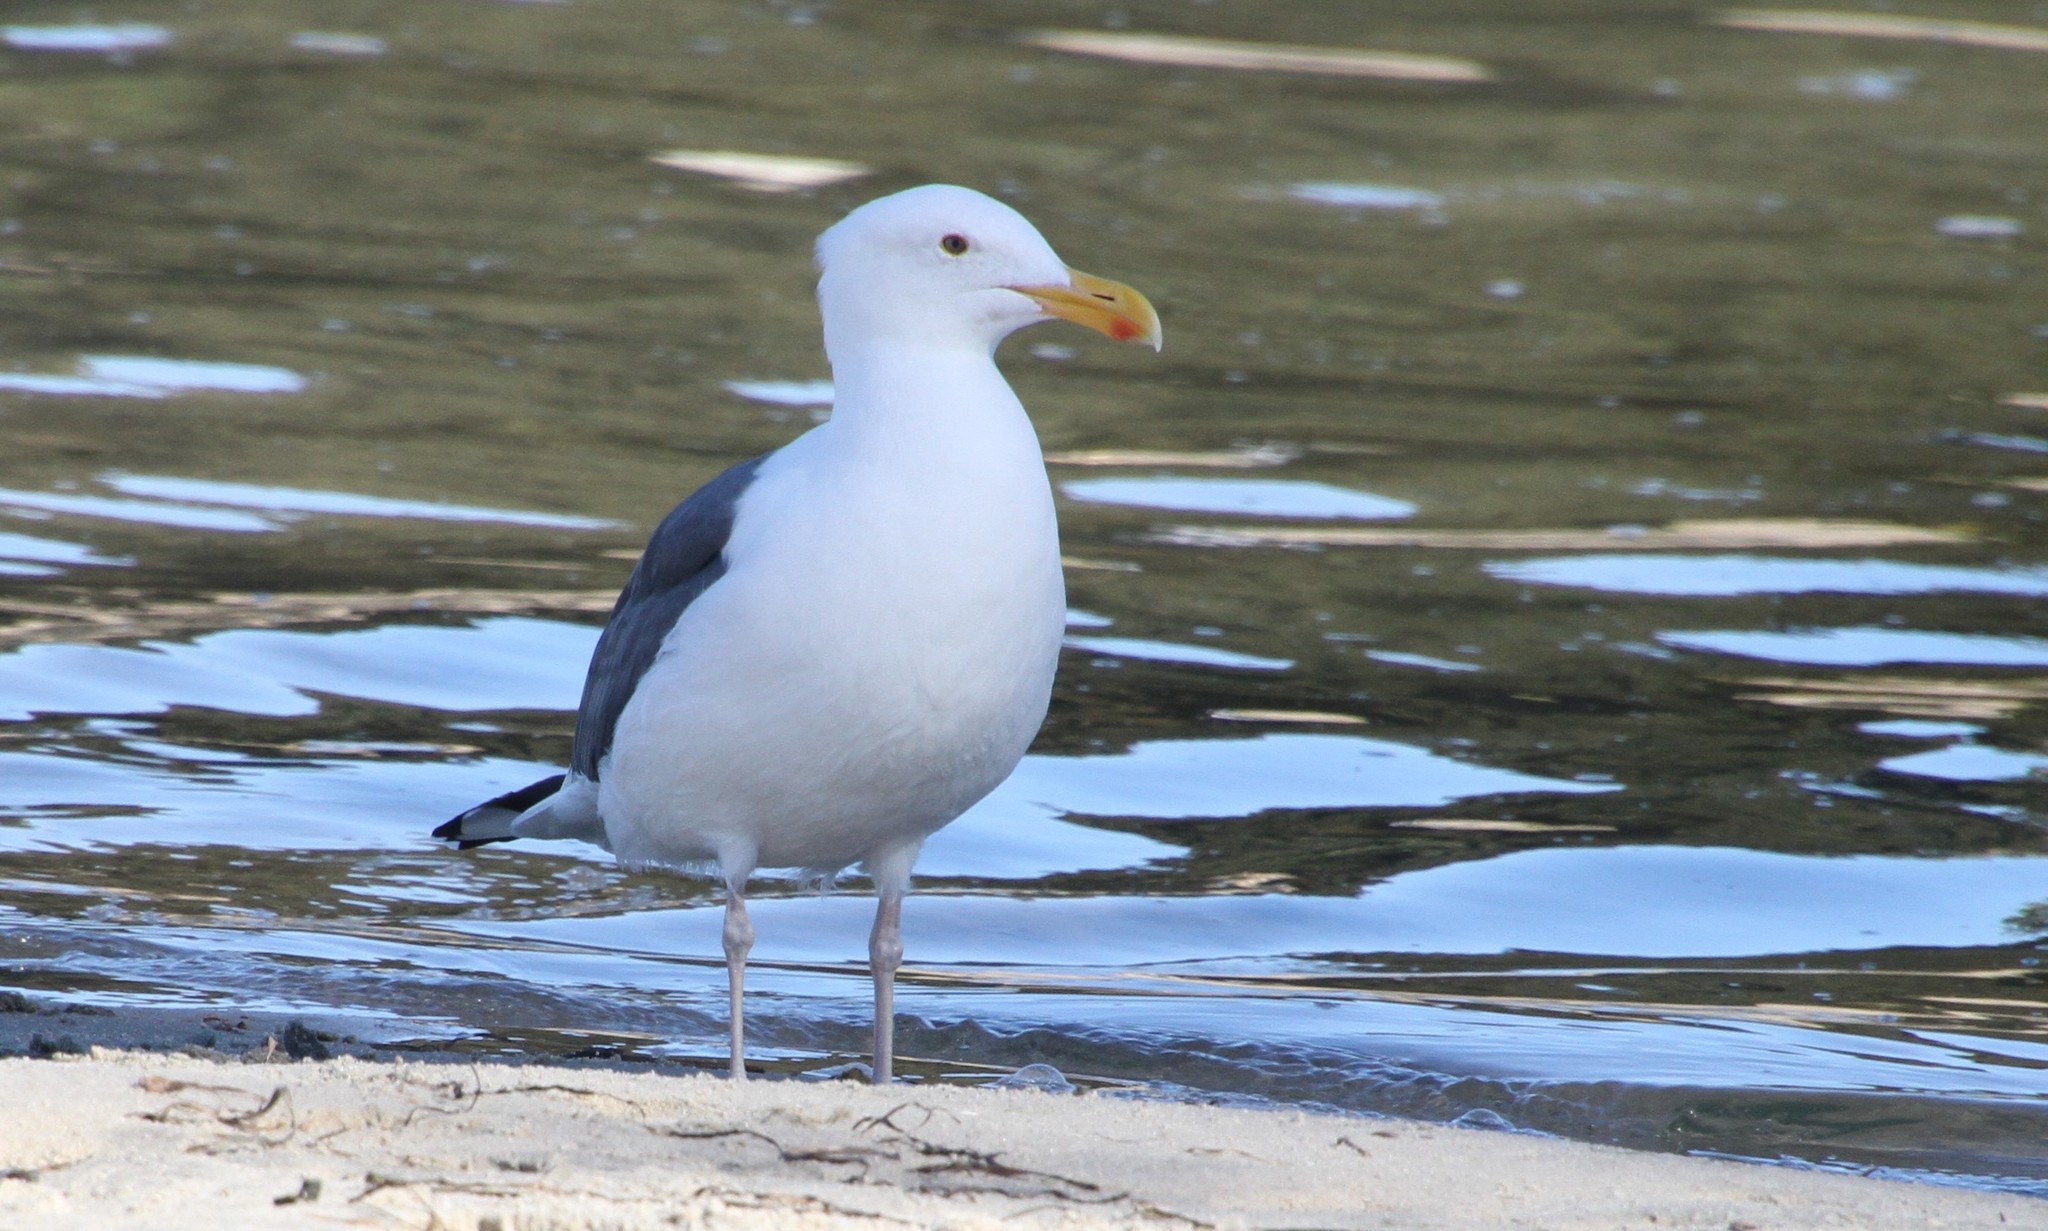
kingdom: Animalia
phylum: Chordata
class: Aves
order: Charadriiformes
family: Laridae
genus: Larus
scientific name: Larus occidentalis
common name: Western gull
